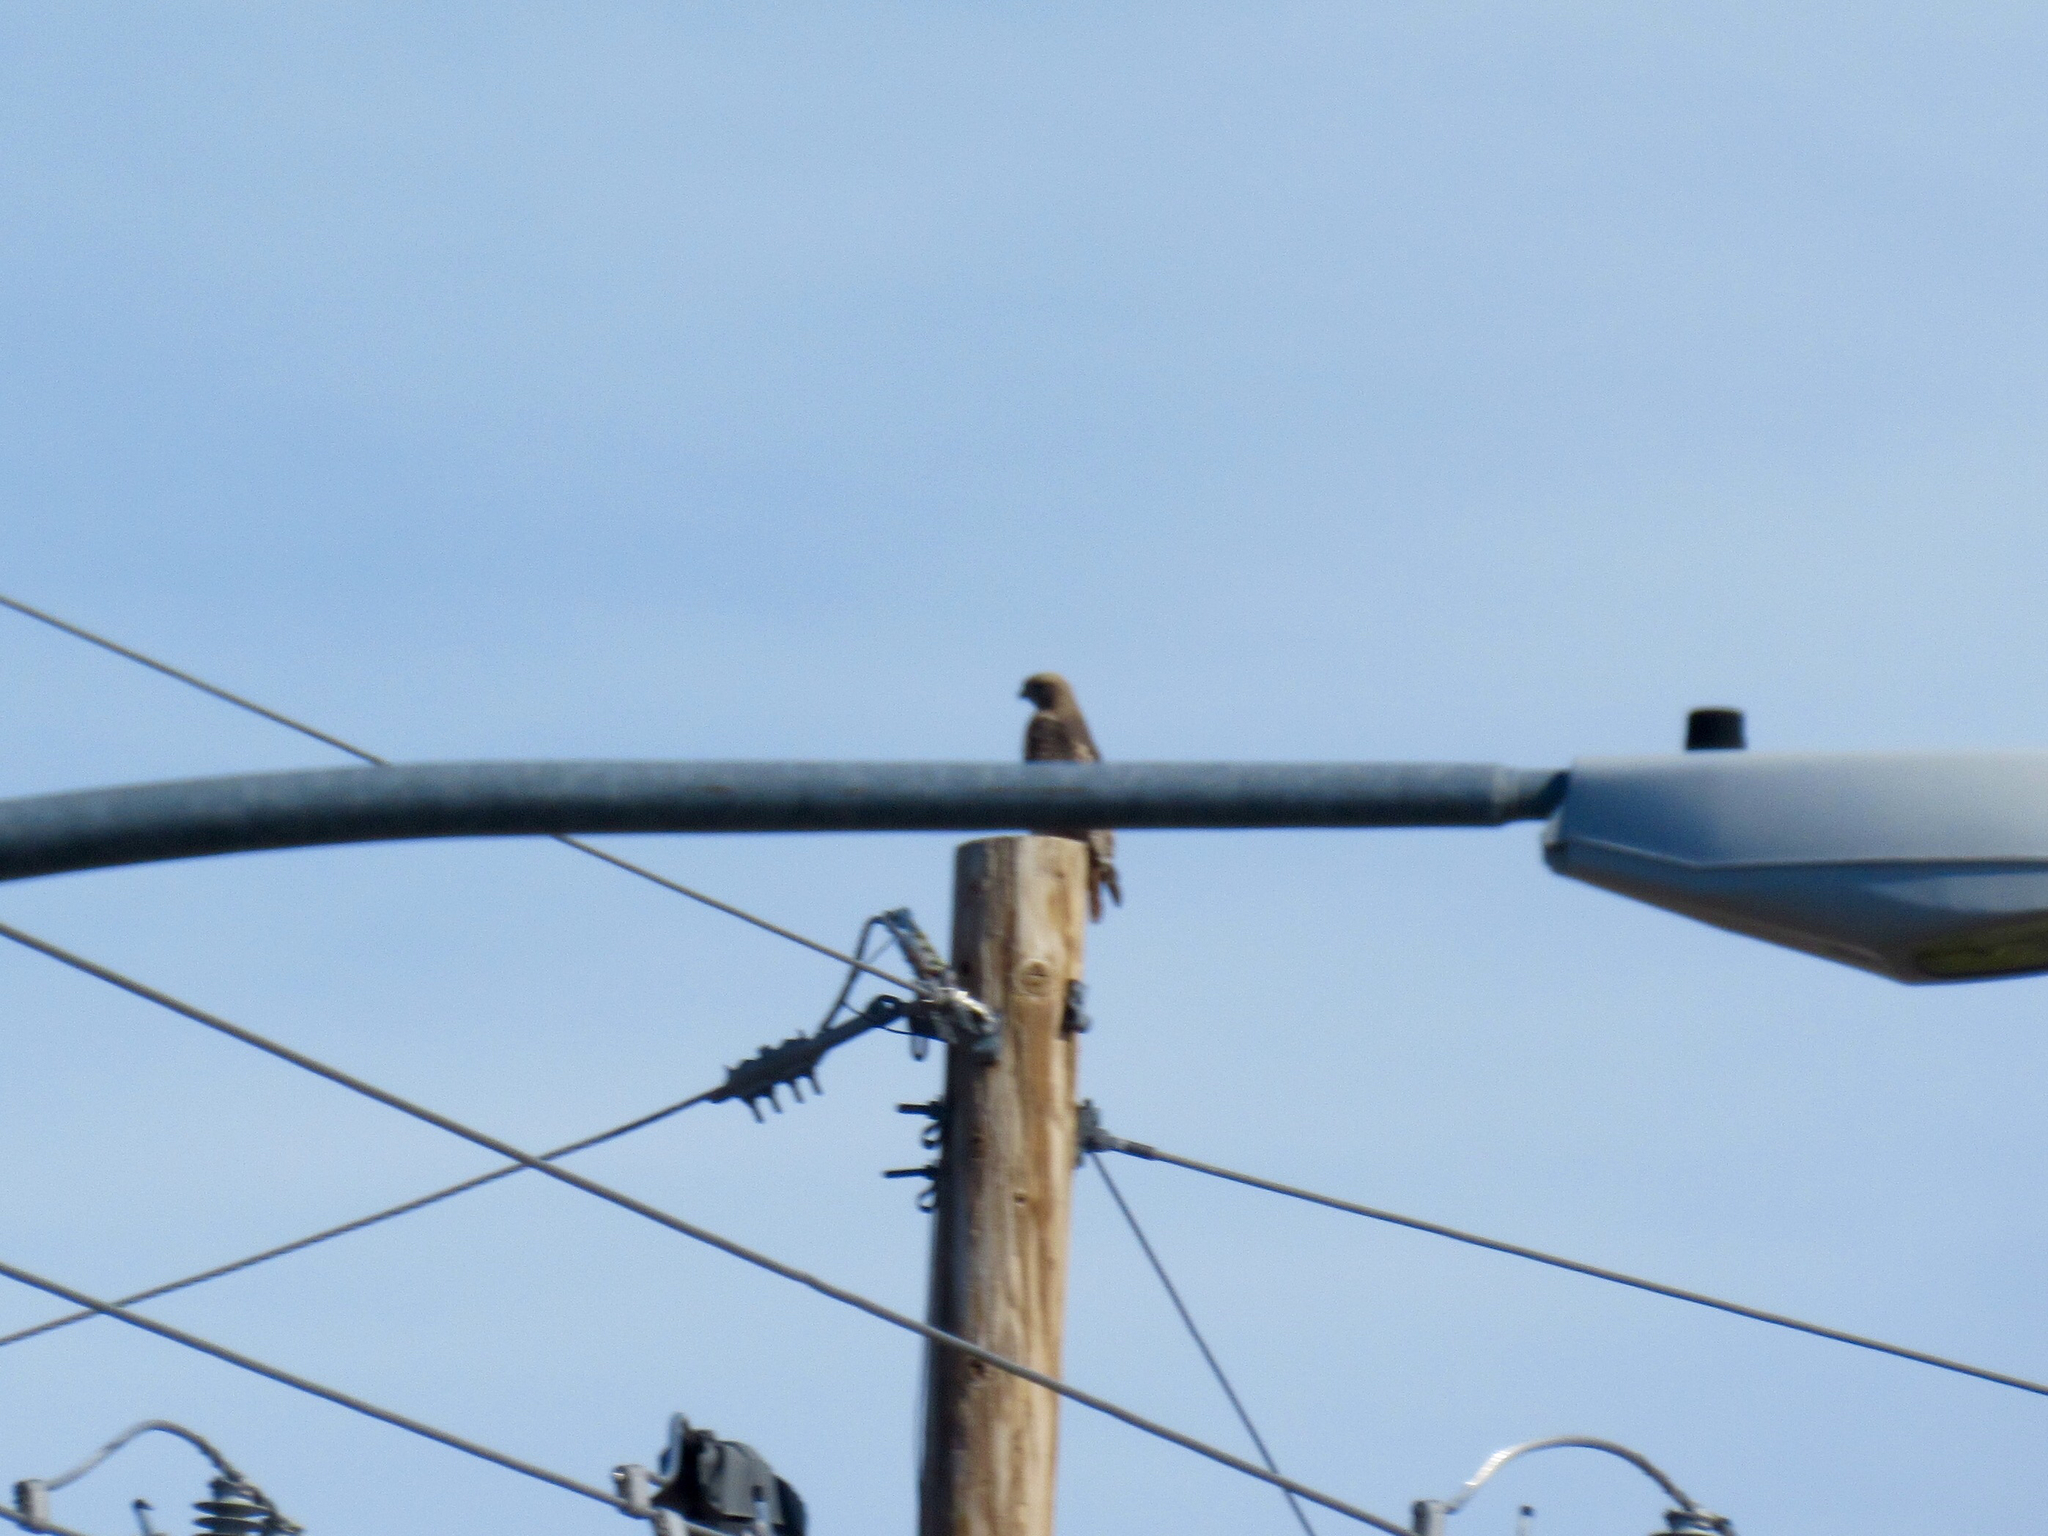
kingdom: Animalia
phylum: Chordata
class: Aves
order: Accipitriformes
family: Accipitridae
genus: Buteo
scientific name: Buteo jamaicensis
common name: Red-tailed hawk
